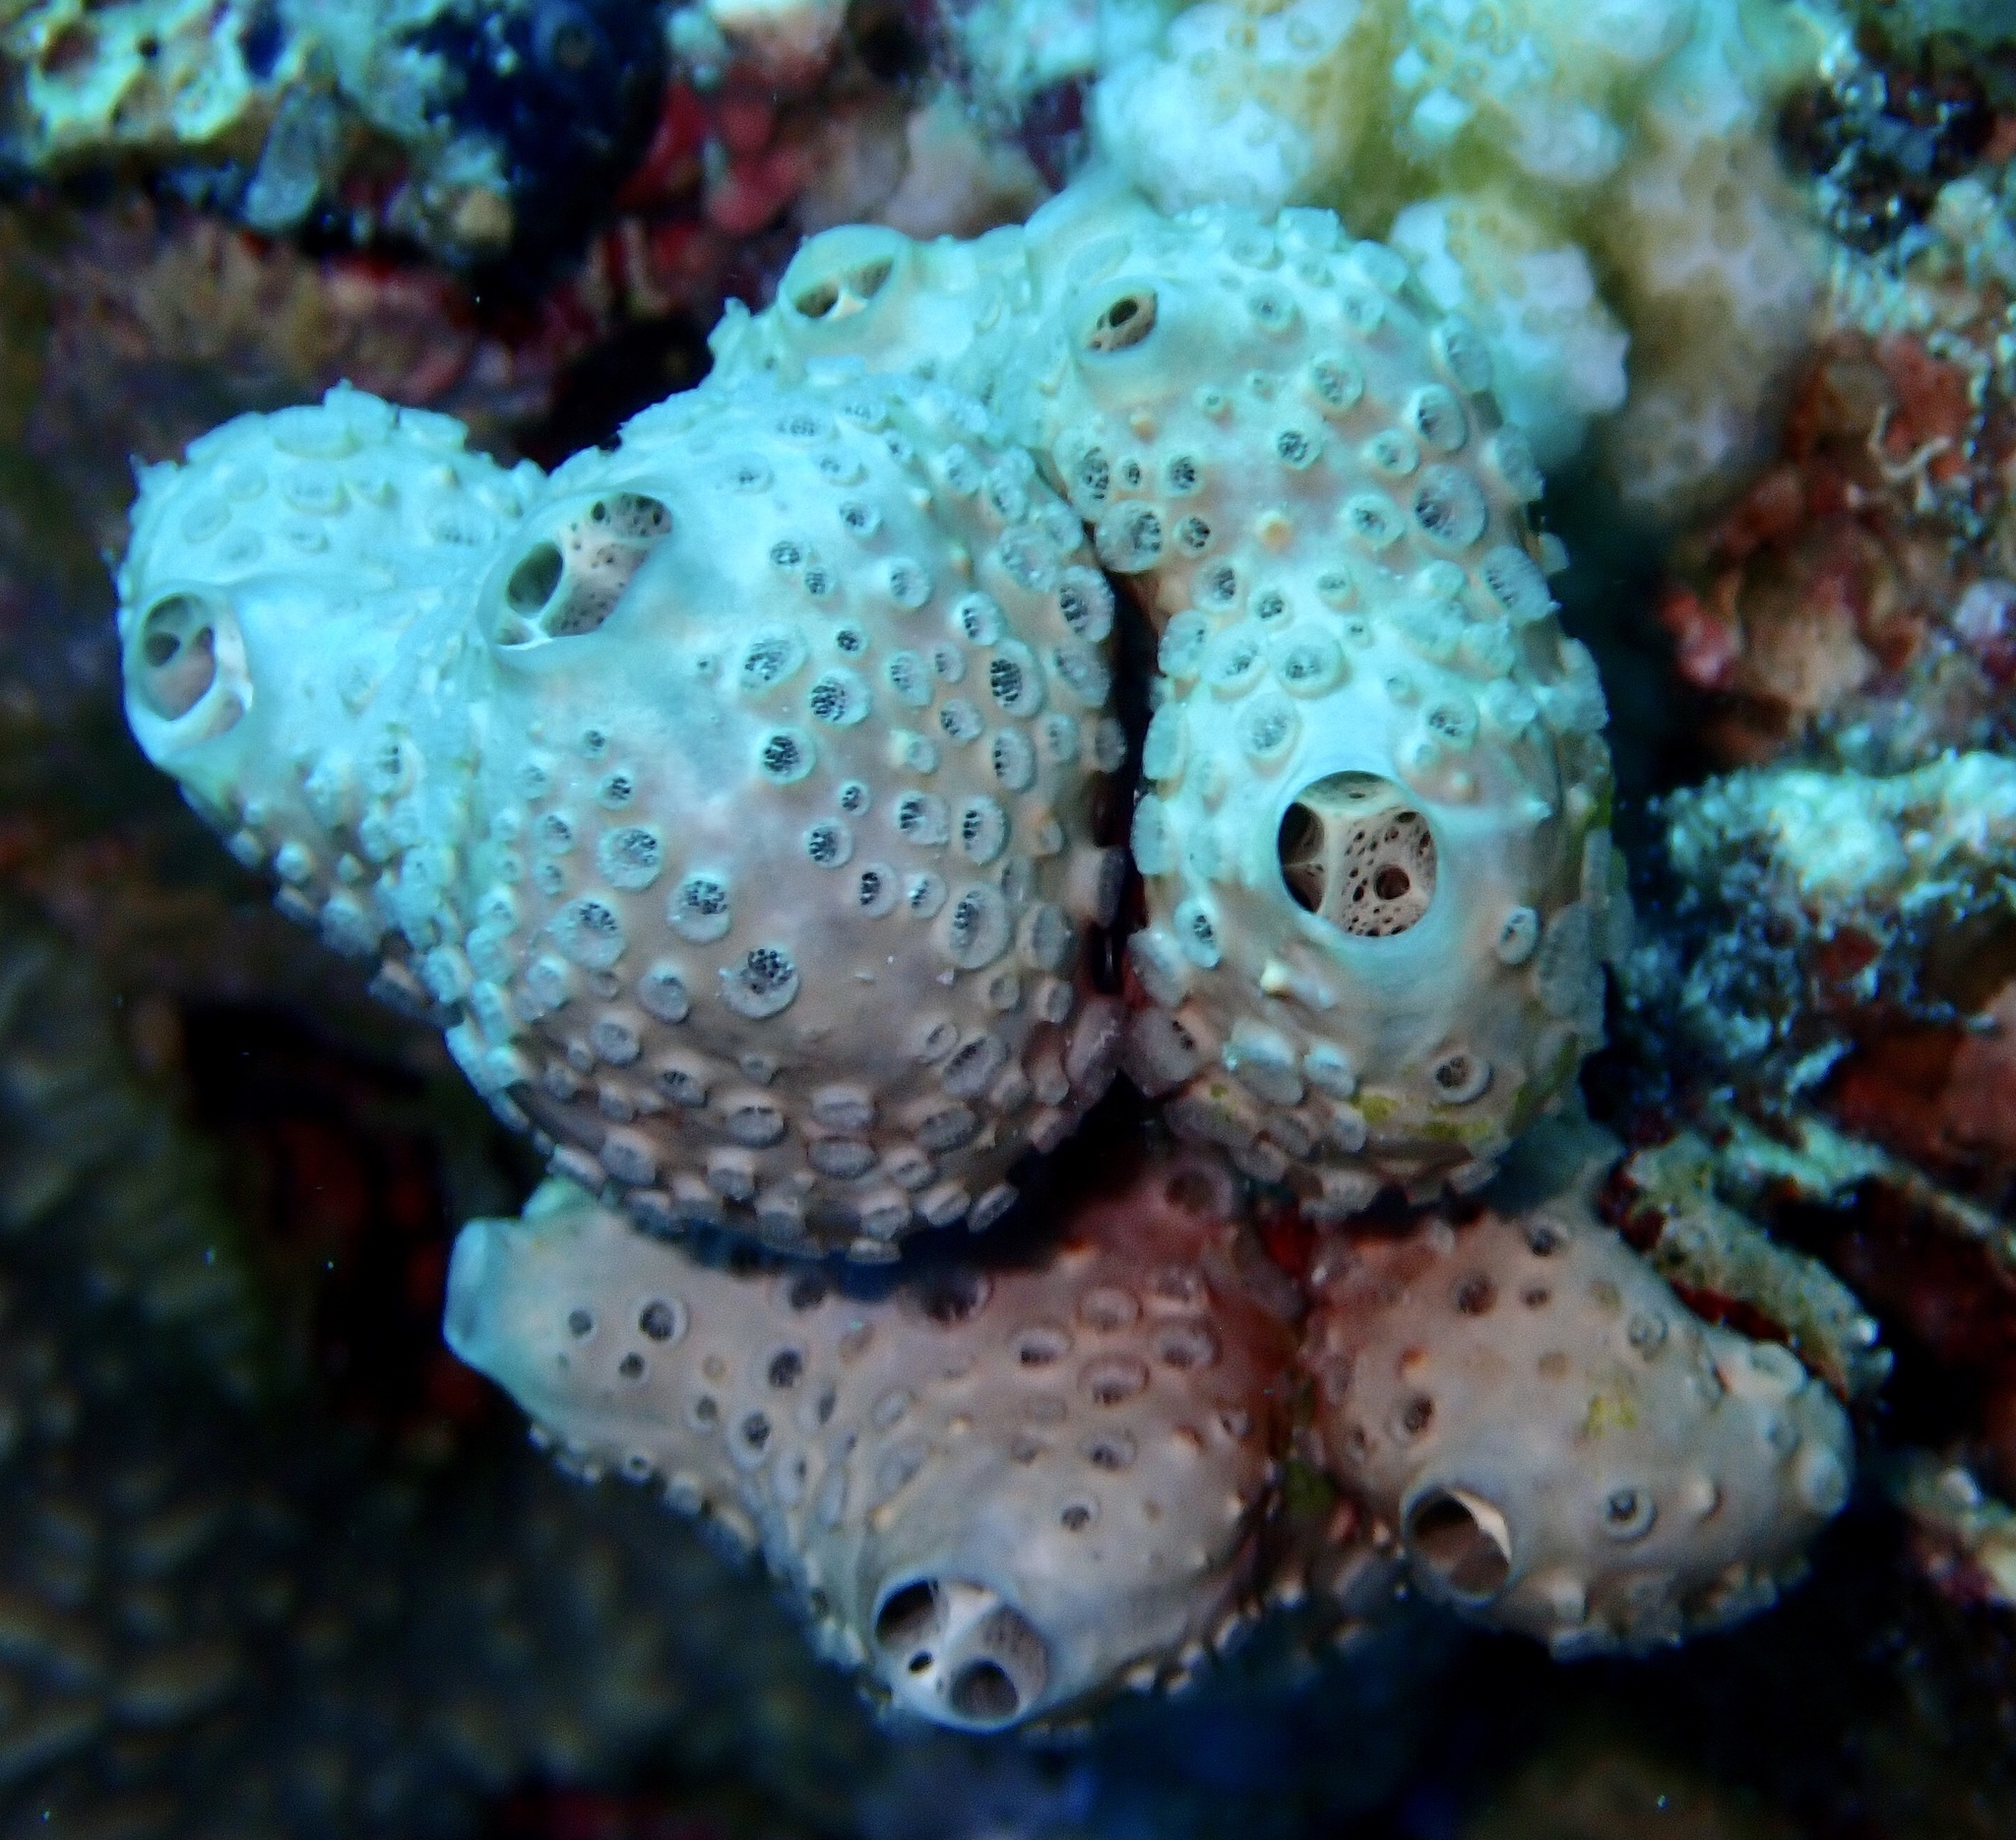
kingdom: Animalia
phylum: Porifera
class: Demospongiae
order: Poecilosclerida
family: Crellidae
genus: Crella
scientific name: Crella cyathophora
